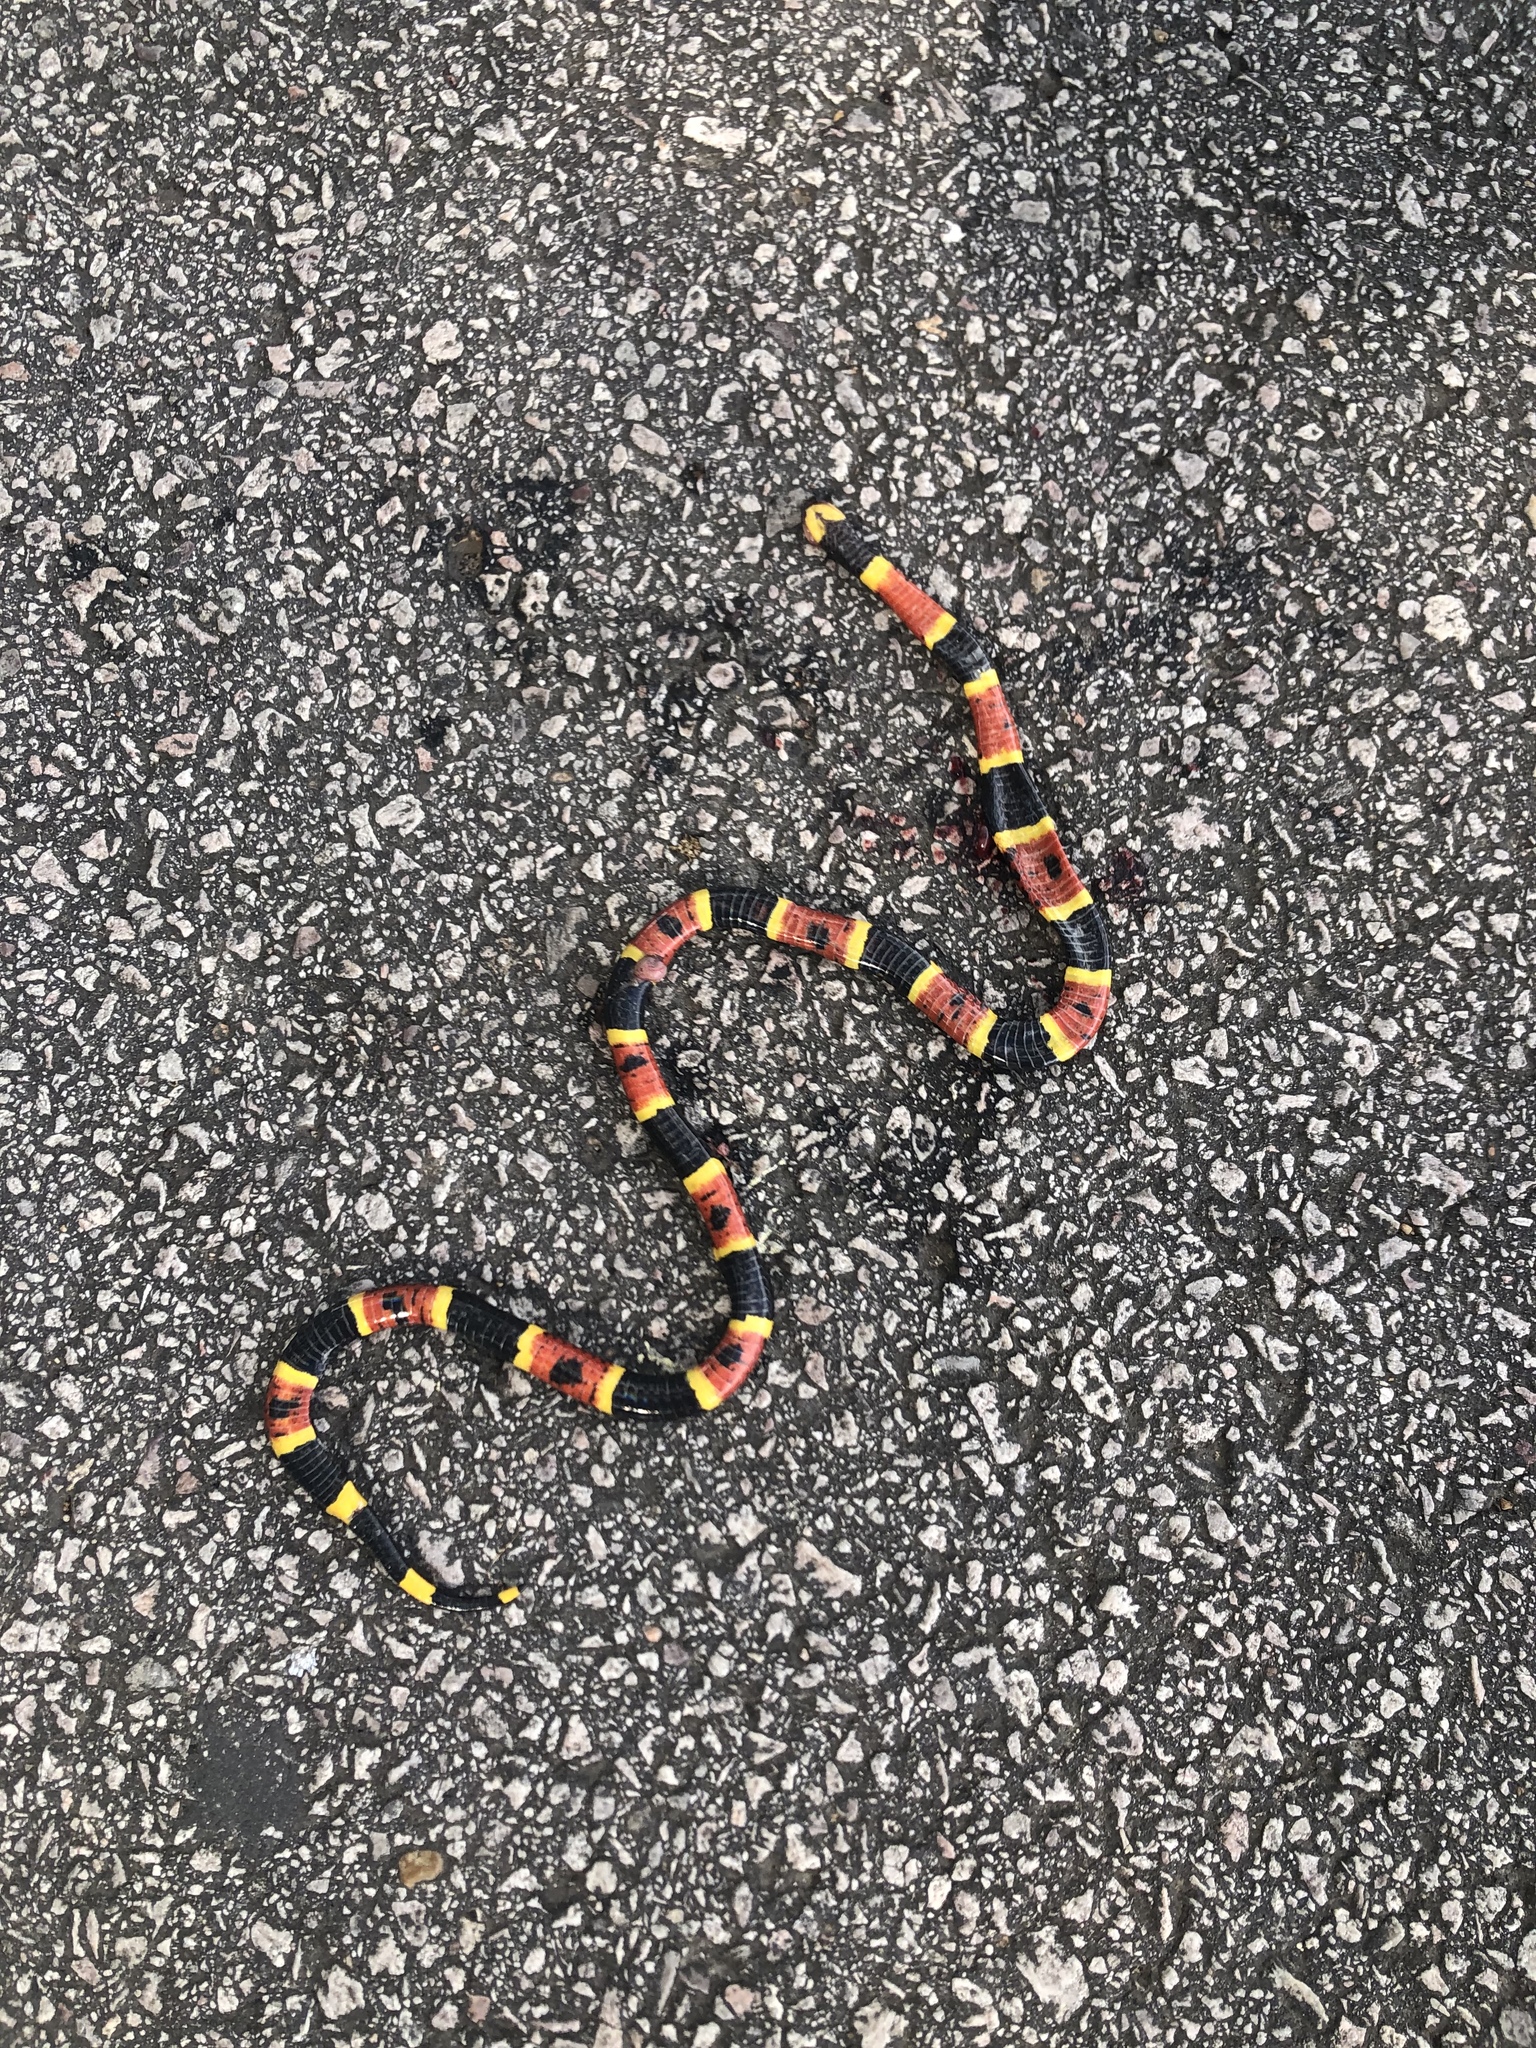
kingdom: Animalia
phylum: Chordata
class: Squamata
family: Elapidae
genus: Micrurus
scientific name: Micrurus tener
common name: Texas coral snake
